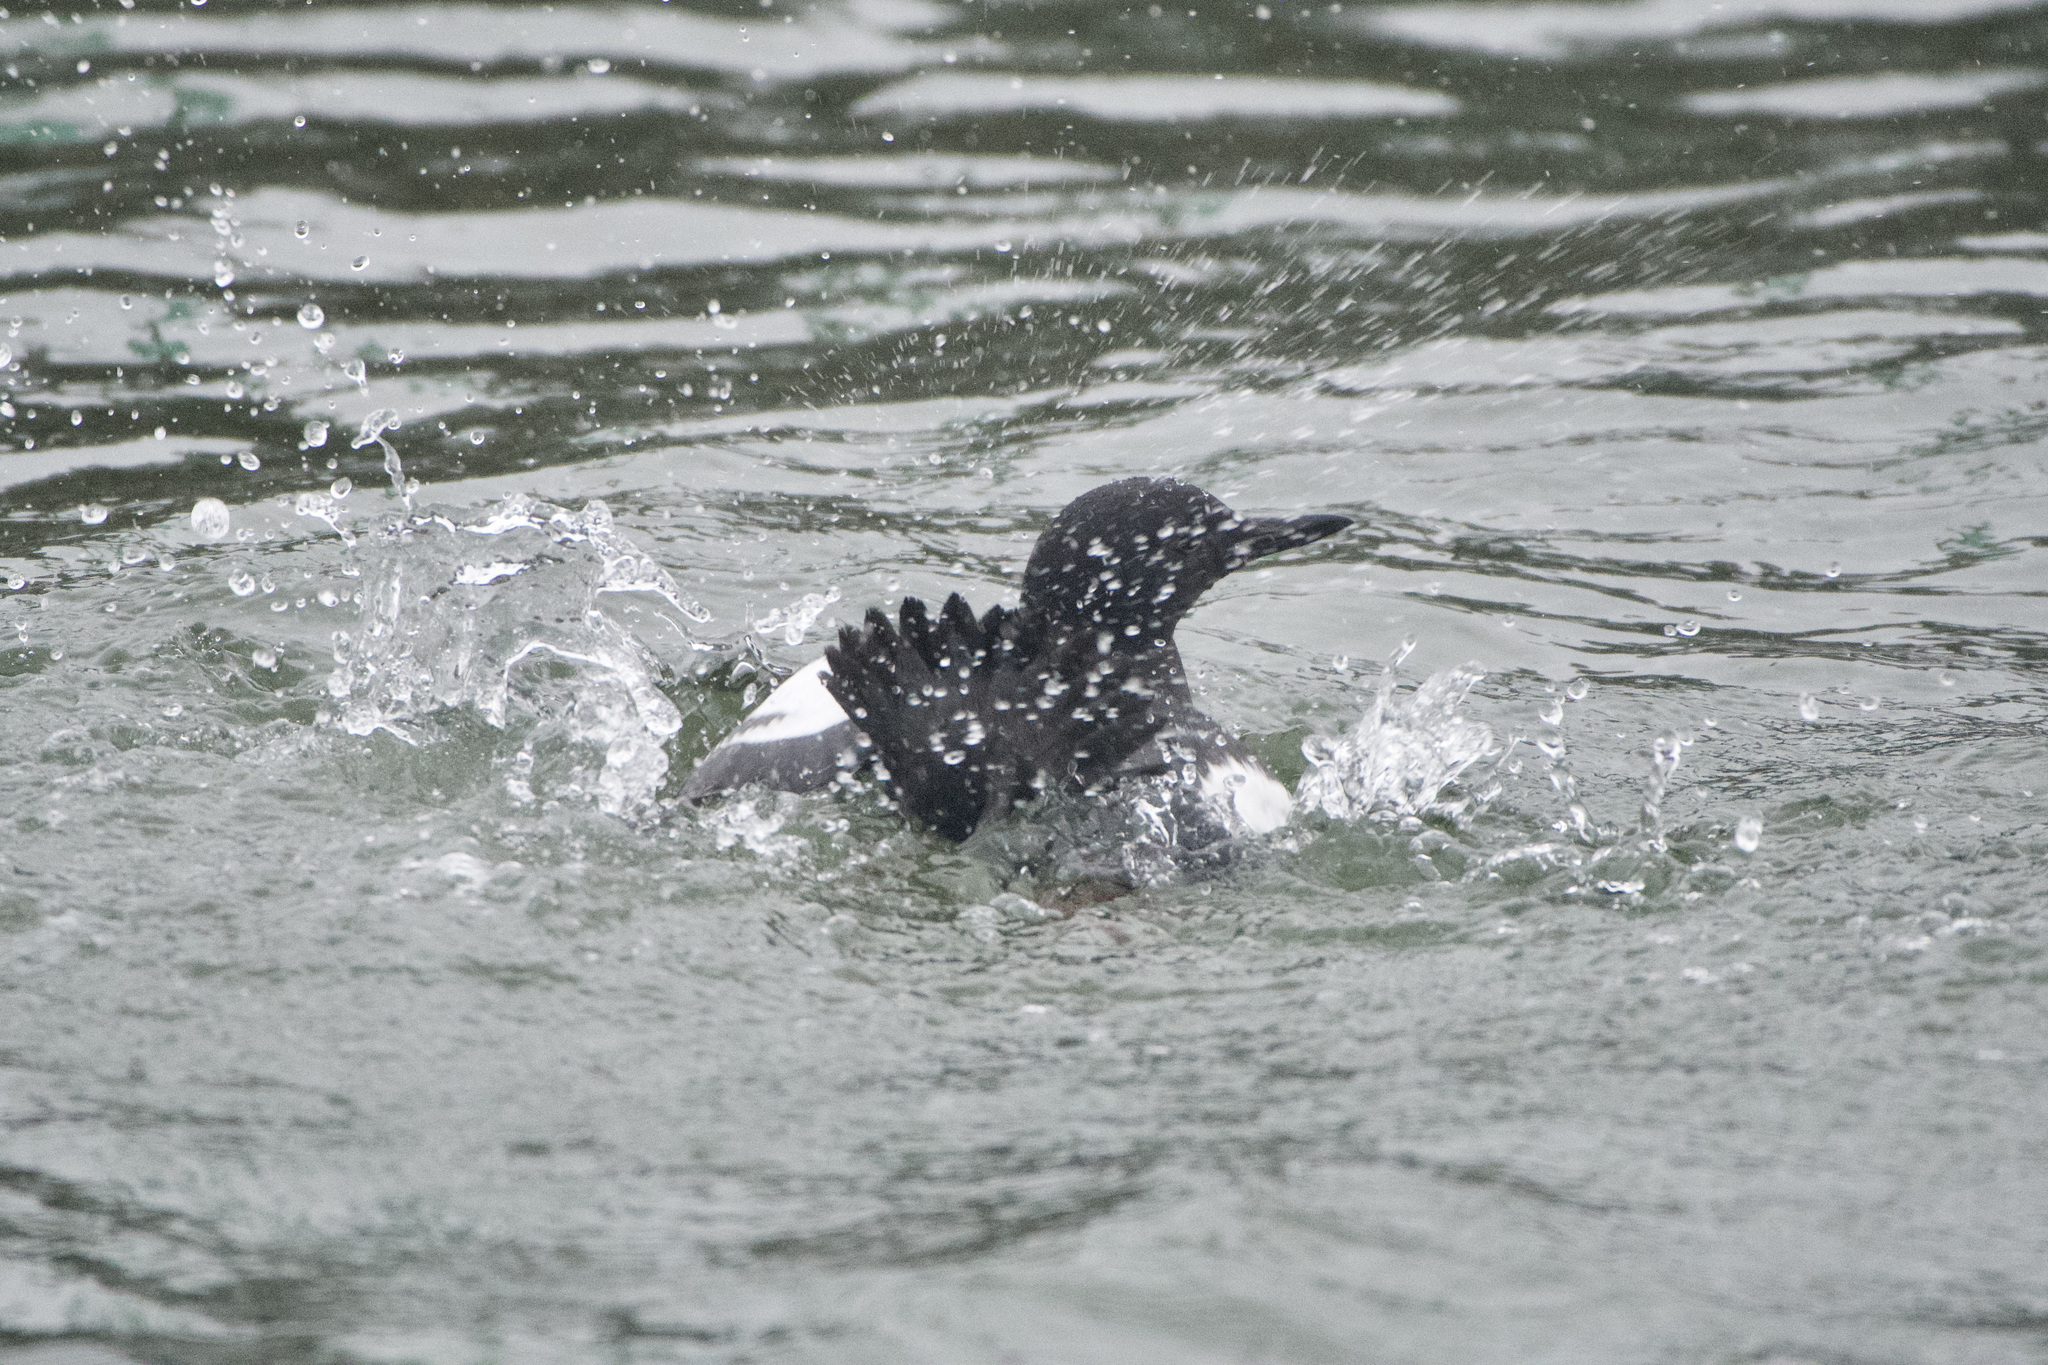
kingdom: Animalia
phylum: Chordata
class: Aves
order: Charadriiformes
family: Alcidae
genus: Cepphus
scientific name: Cepphus columba
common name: Pigeon guillemot
